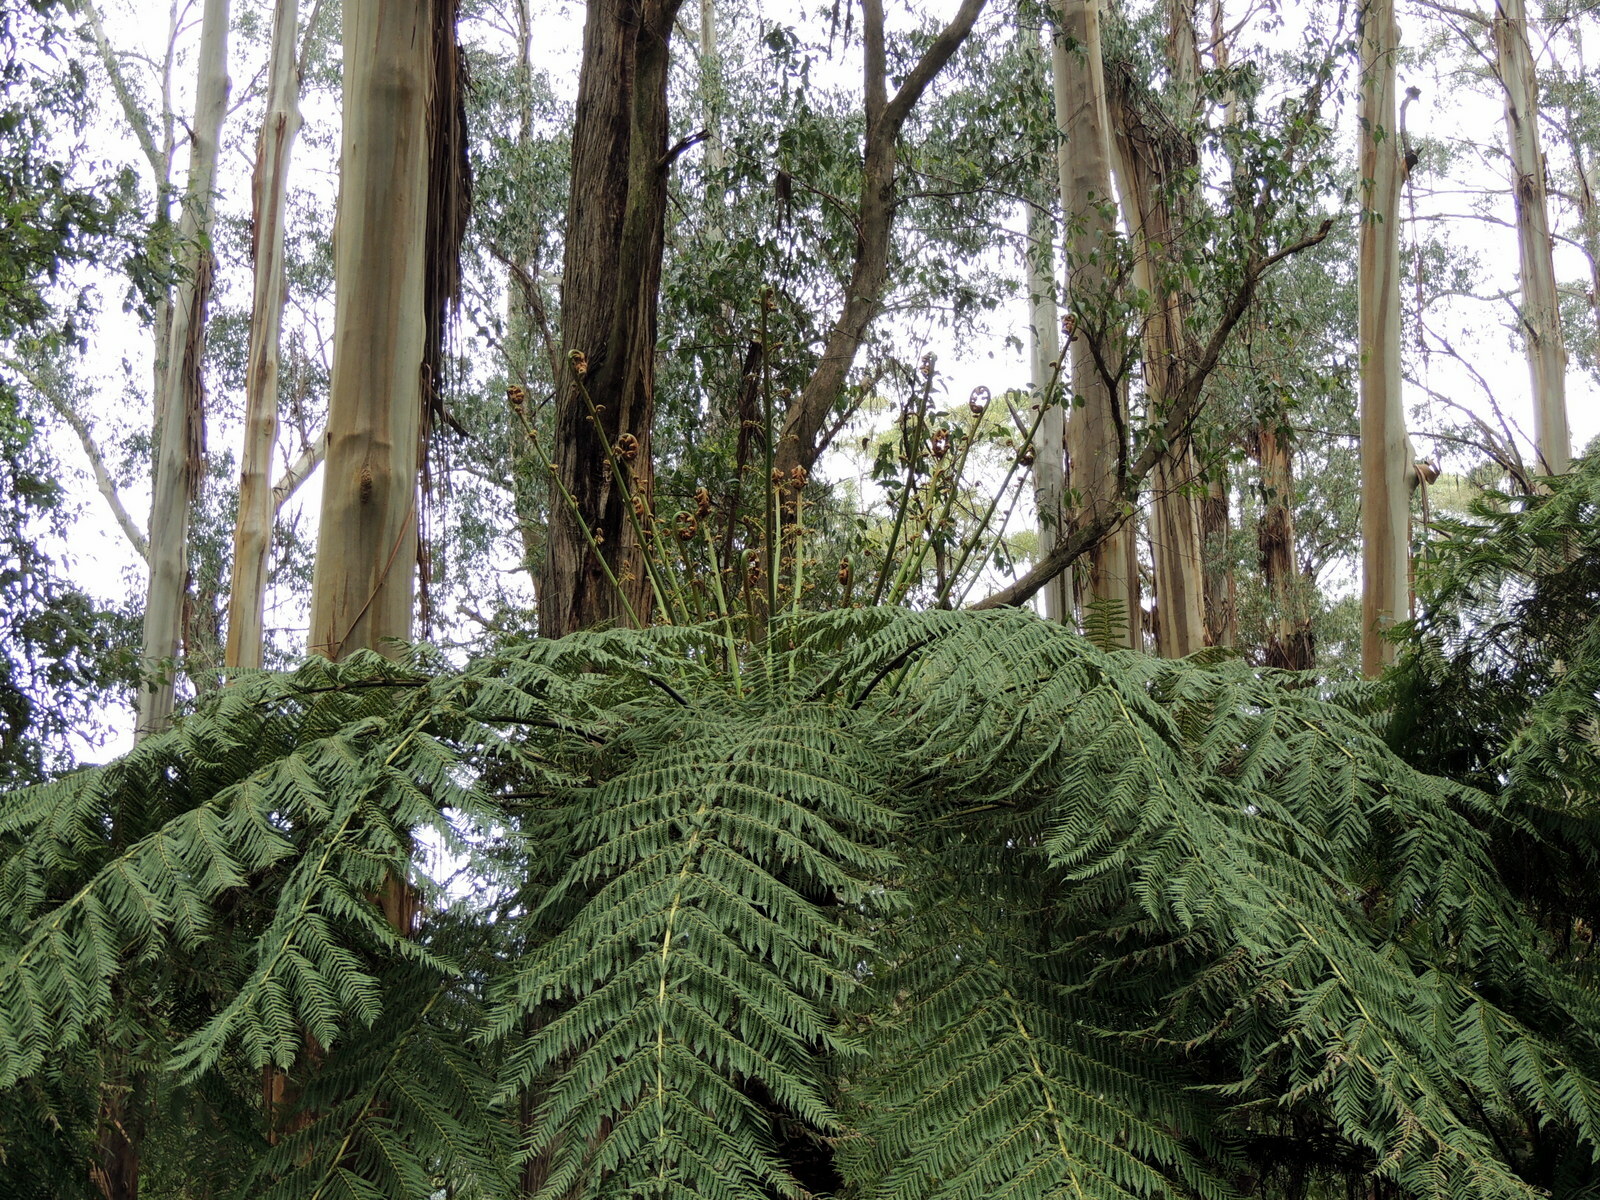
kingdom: Plantae
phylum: Tracheophyta
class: Polypodiopsida
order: Cyatheales
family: Cyatheaceae
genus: Alsophila
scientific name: Alsophila australis
